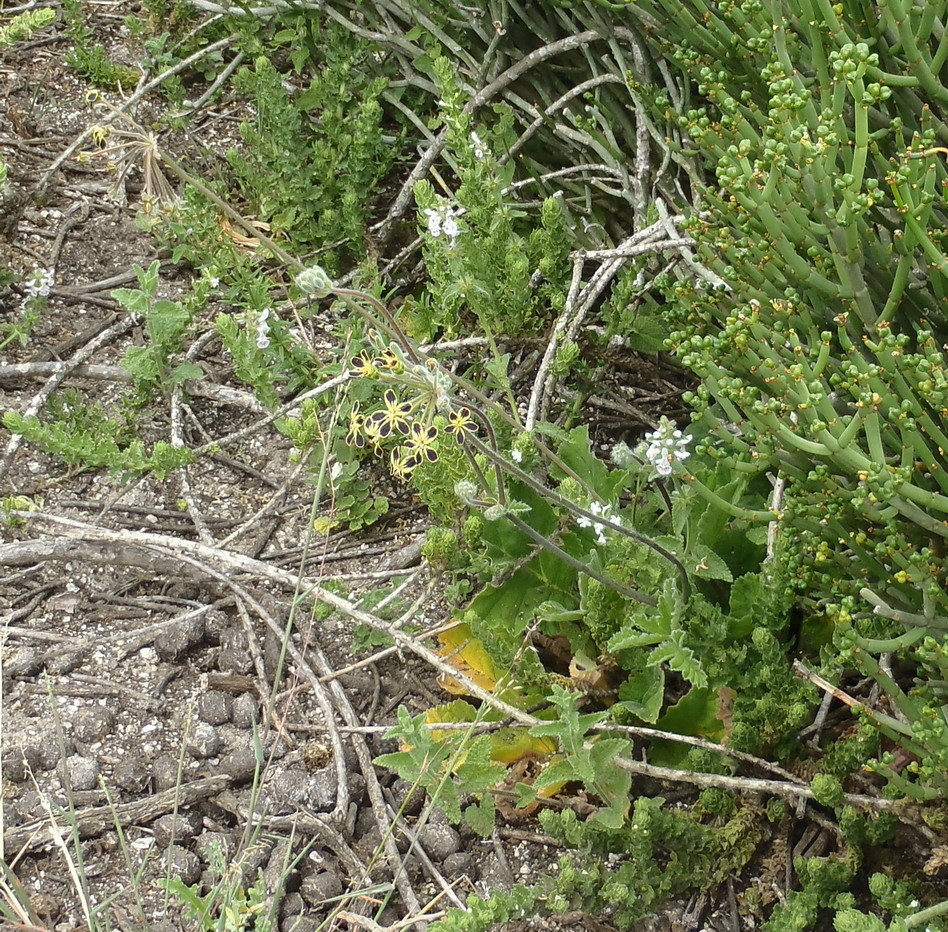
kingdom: Plantae
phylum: Tracheophyta
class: Magnoliopsida
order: Geraniales
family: Geraniaceae
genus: Pelargonium
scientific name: Pelargonium lobatum
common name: Vine-leaf pelargonium
